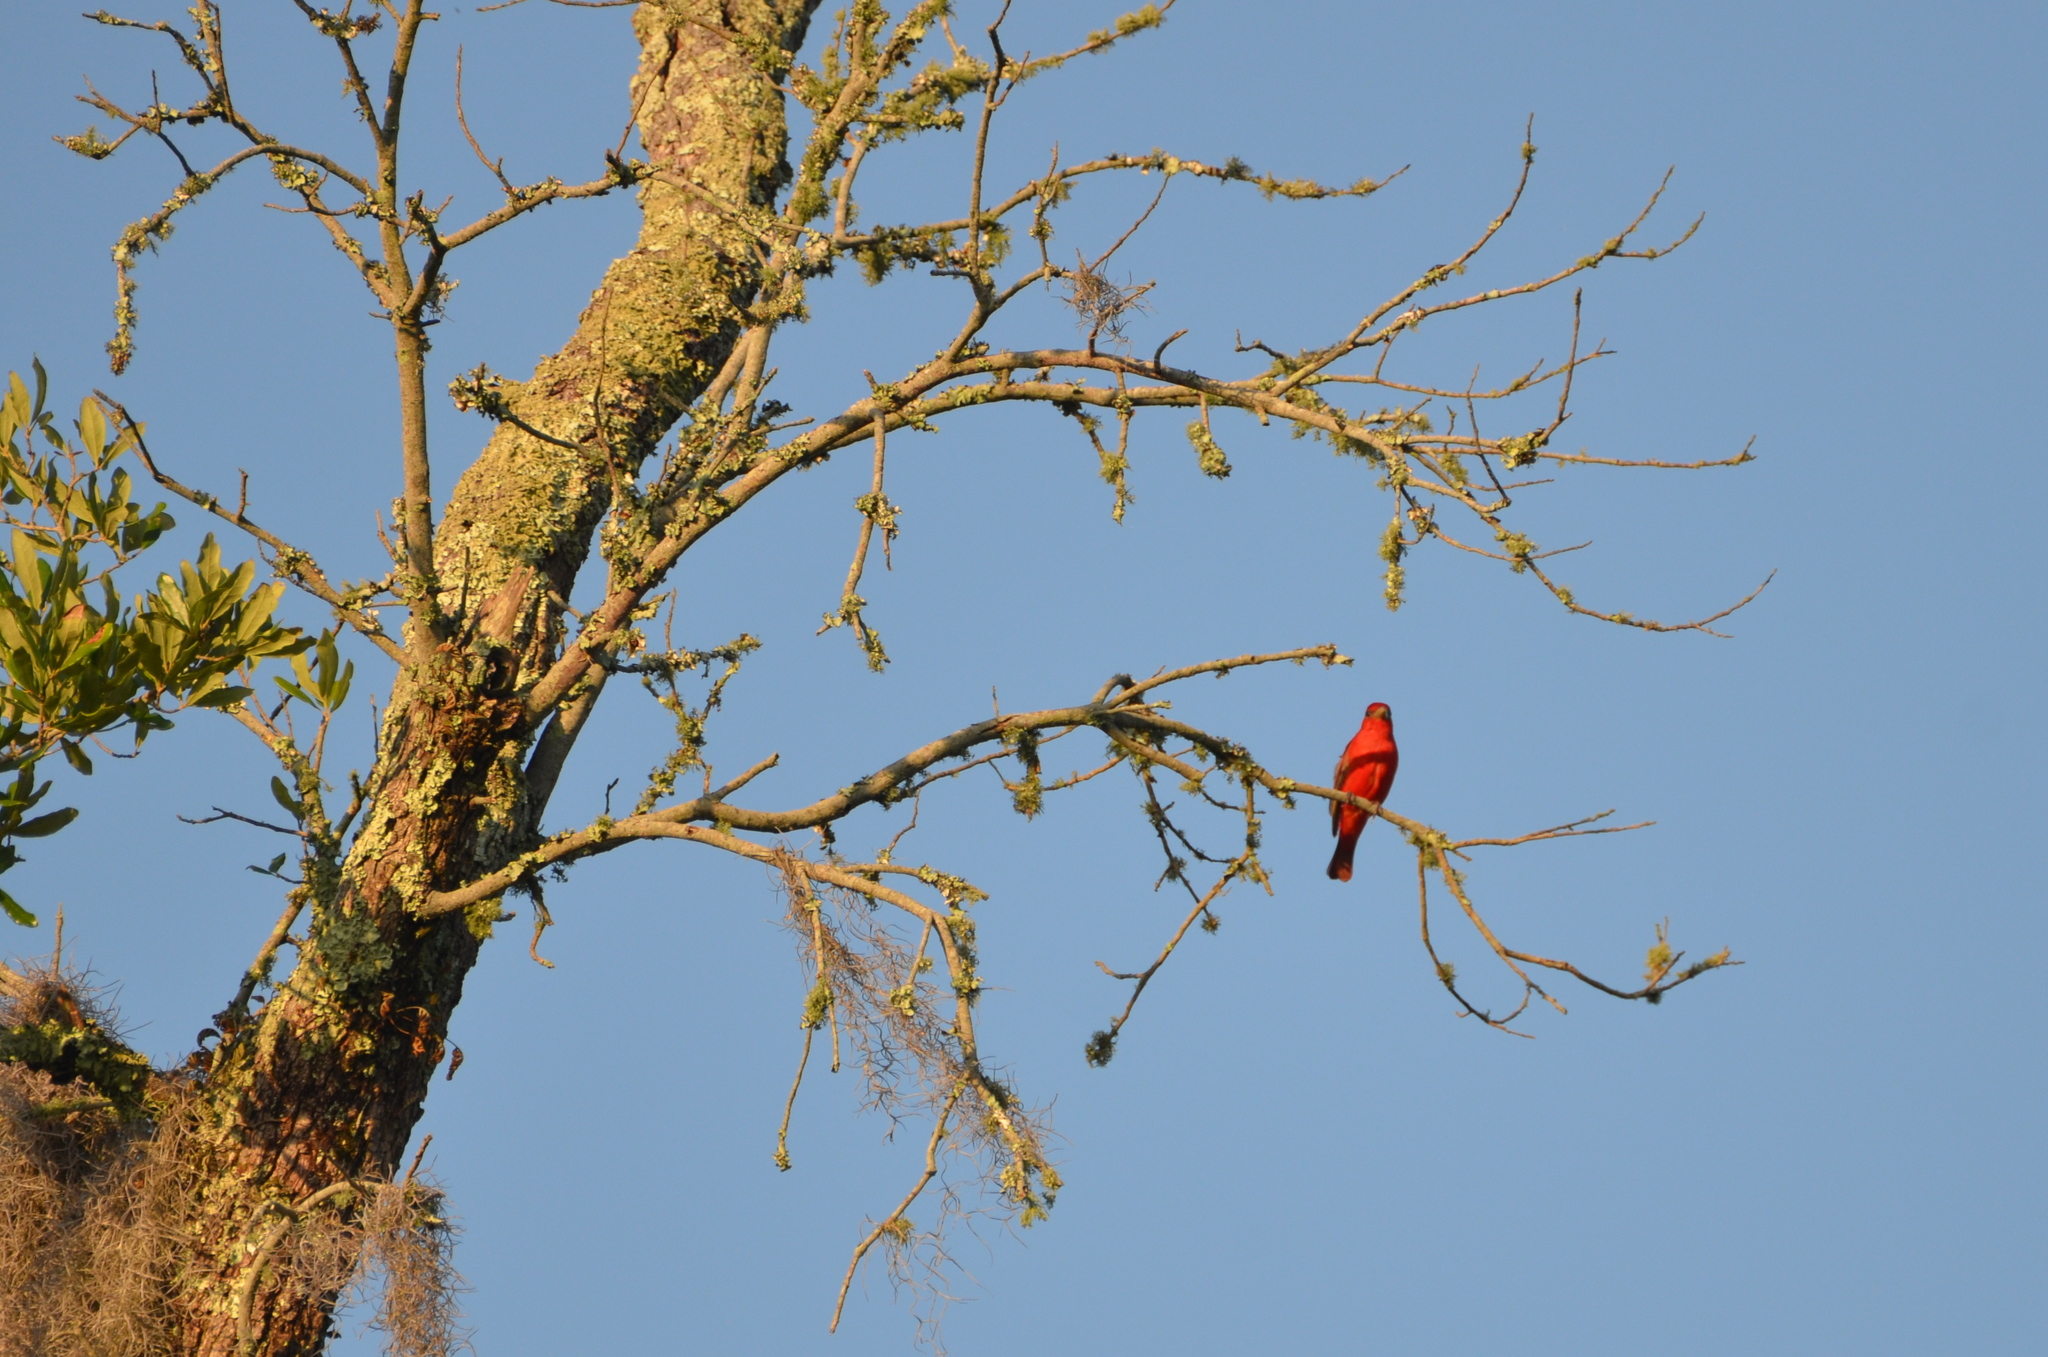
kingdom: Animalia
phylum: Chordata
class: Aves
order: Passeriformes
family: Cardinalidae
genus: Piranga
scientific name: Piranga rubra
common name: Summer tanager
